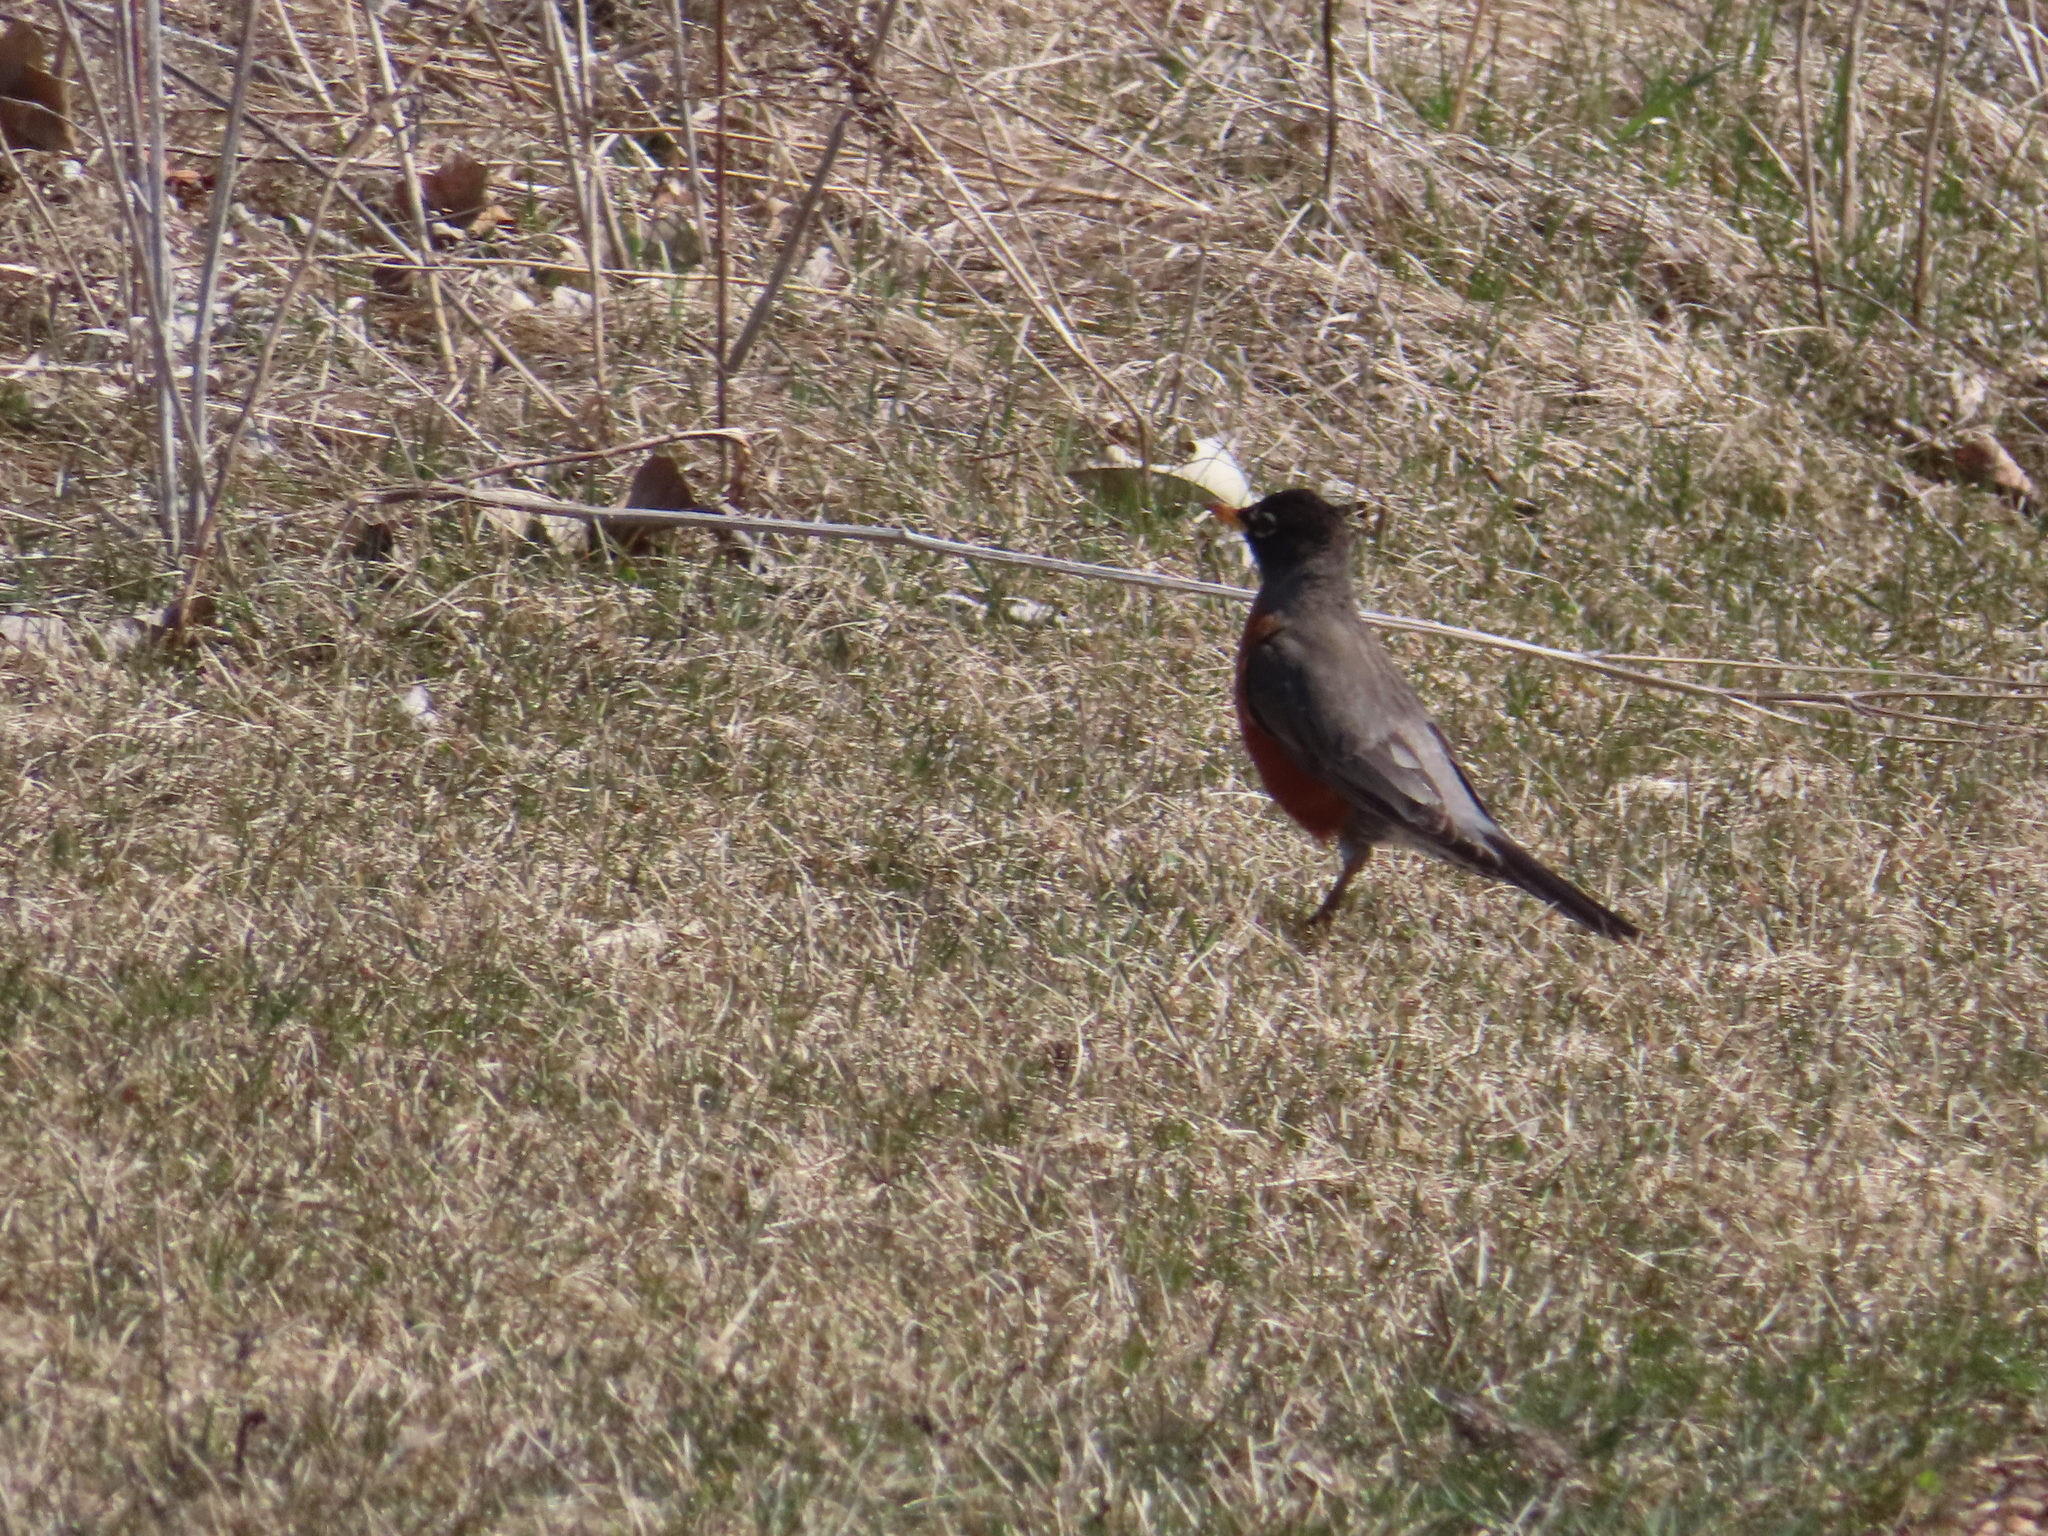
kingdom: Animalia
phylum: Chordata
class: Aves
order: Passeriformes
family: Turdidae
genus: Turdus
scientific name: Turdus migratorius
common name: American robin
